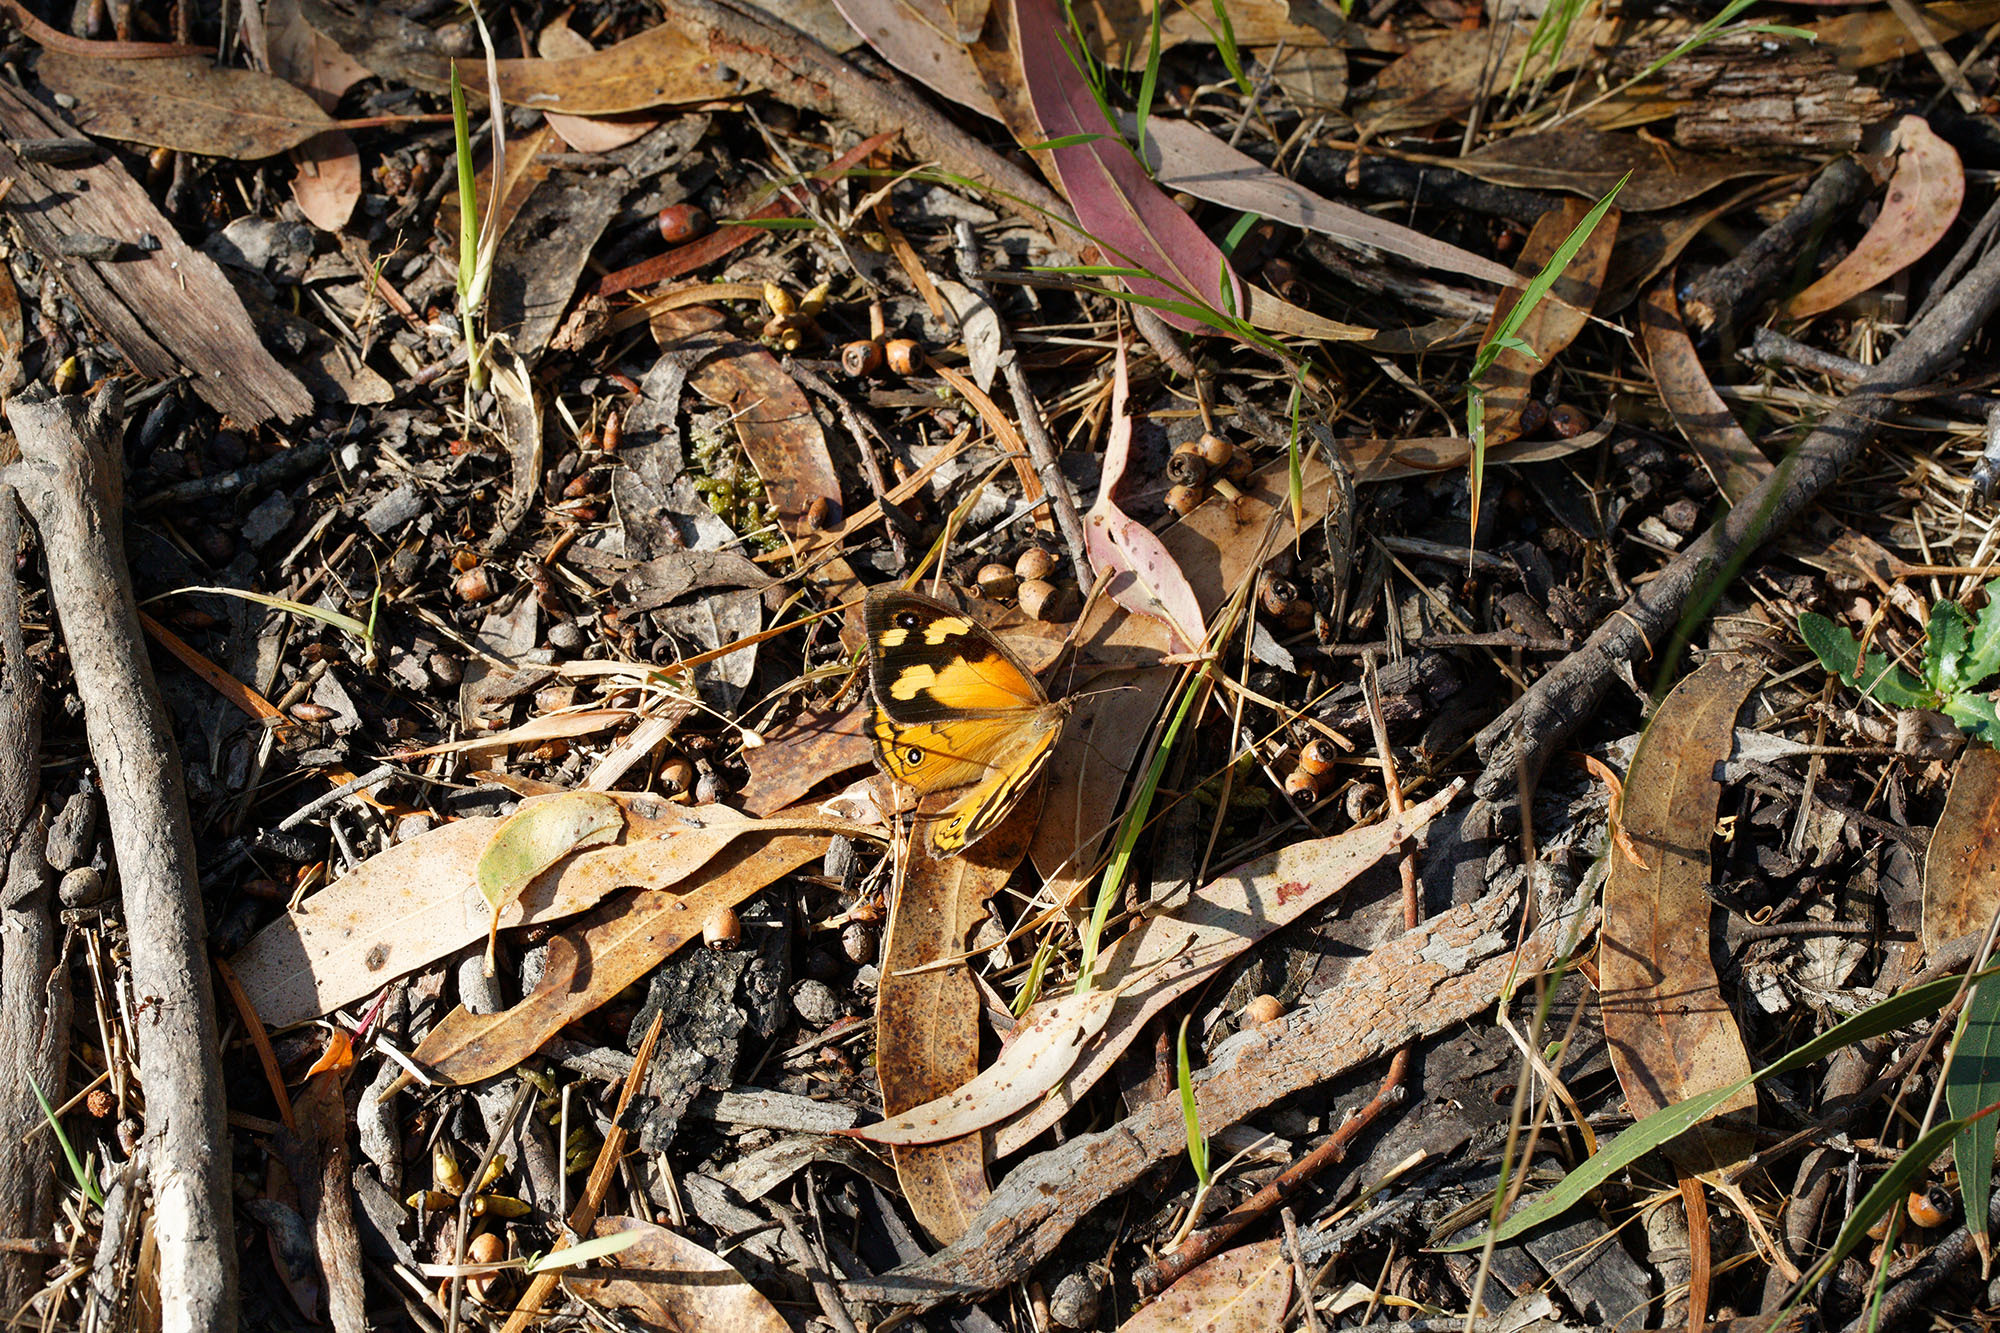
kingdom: Animalia
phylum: Arthropoda
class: Insecta
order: Lepidoptera
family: Nymphalidae
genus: Heteronympha
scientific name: Heteronympha merope
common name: Common brown
